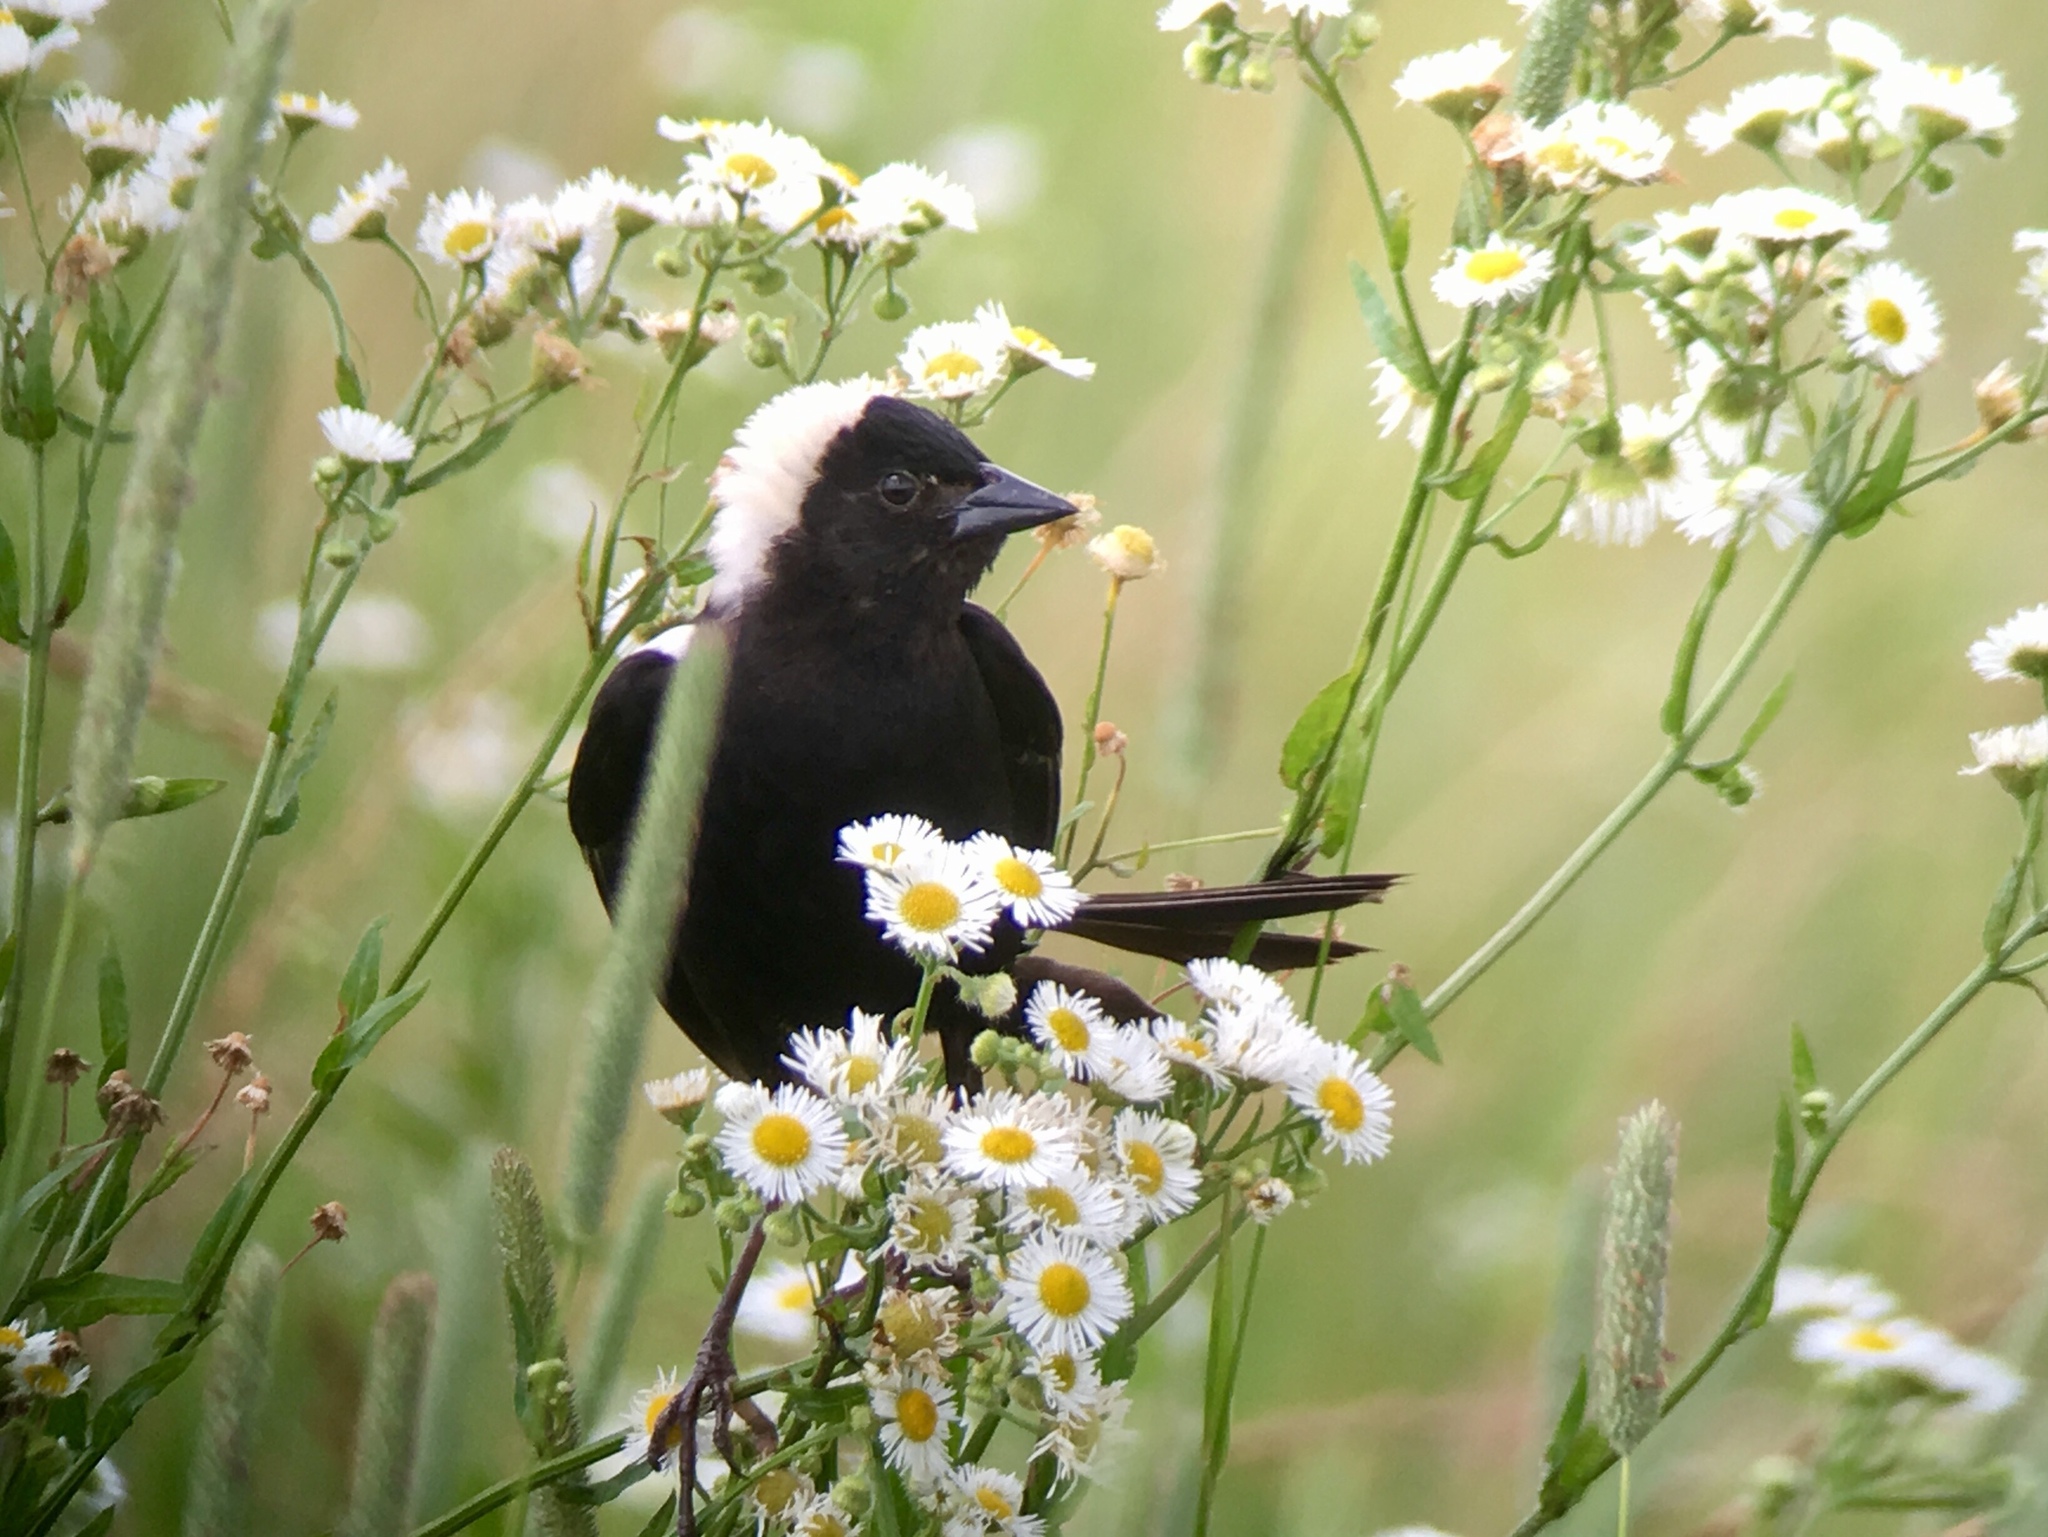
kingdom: Animalia
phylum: Chordata
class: Aves
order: Passeriformes
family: Icteridae
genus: Dolichonyx
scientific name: Dolichonyx oryzivorus
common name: Bobolink
